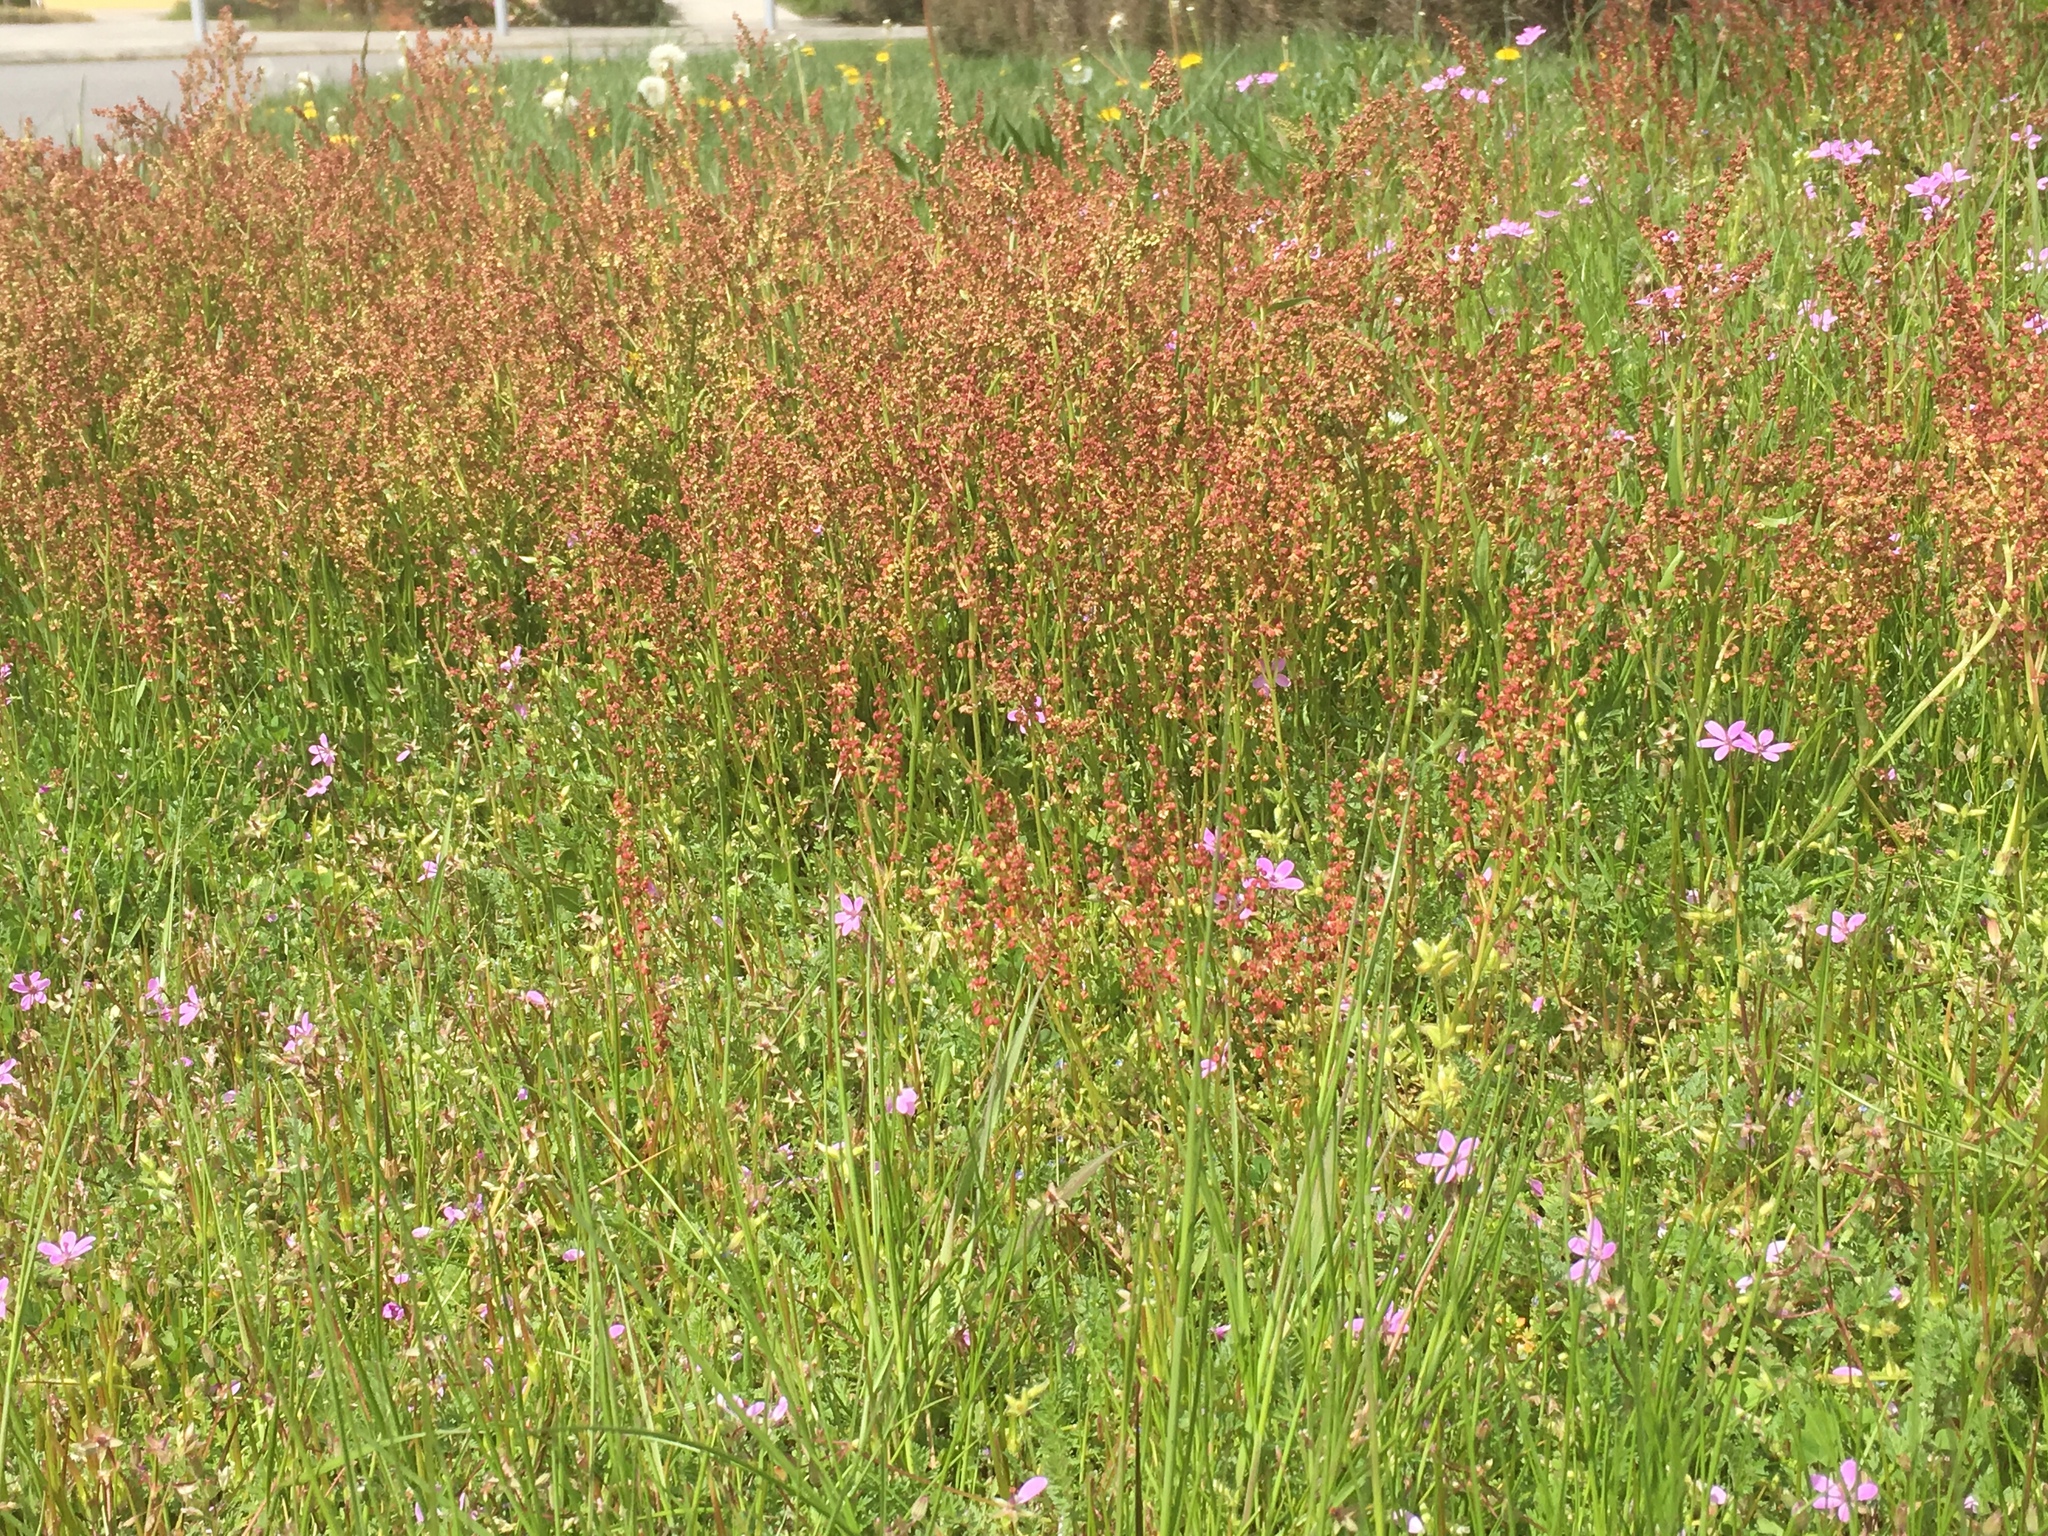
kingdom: Plantae
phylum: Tracheophyta
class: Magnoliopsida
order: Caryophyllales
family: Polygonaceae
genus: Rumex
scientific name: Rumex acetosella
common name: Common sheep sorrel
